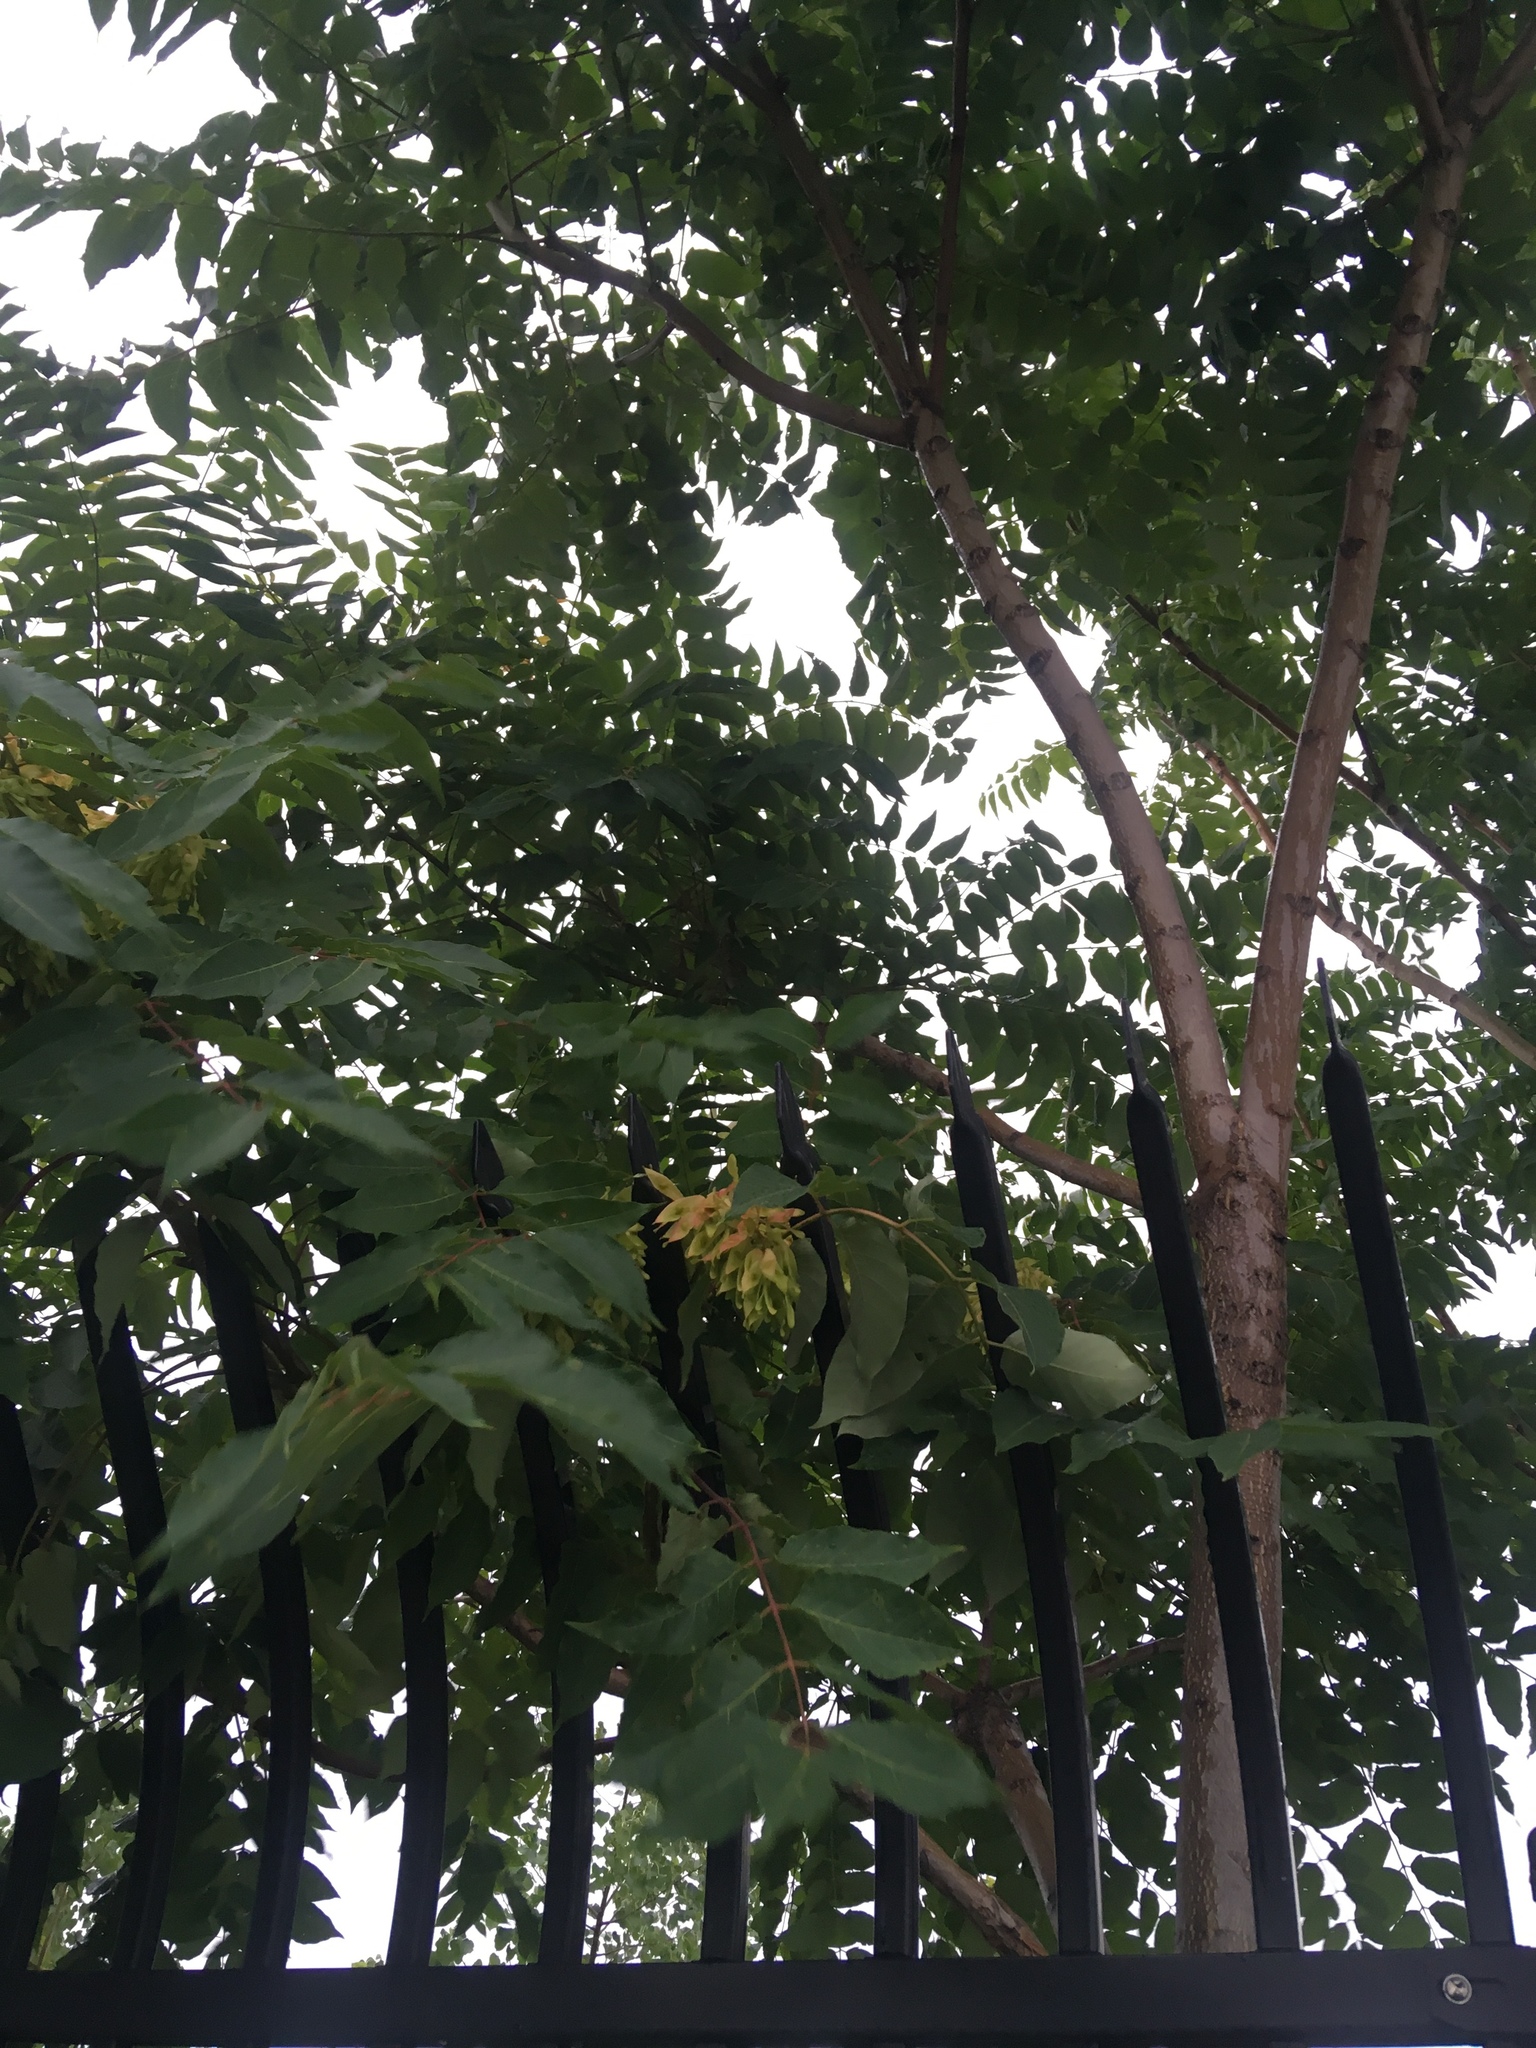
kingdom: Plantae
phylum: Tracheophyta
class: Magnoliopsida
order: Sapindales
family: Simaroubaceae
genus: Ailanthus
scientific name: Ailanthus altissima
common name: Tree-of-heaven
